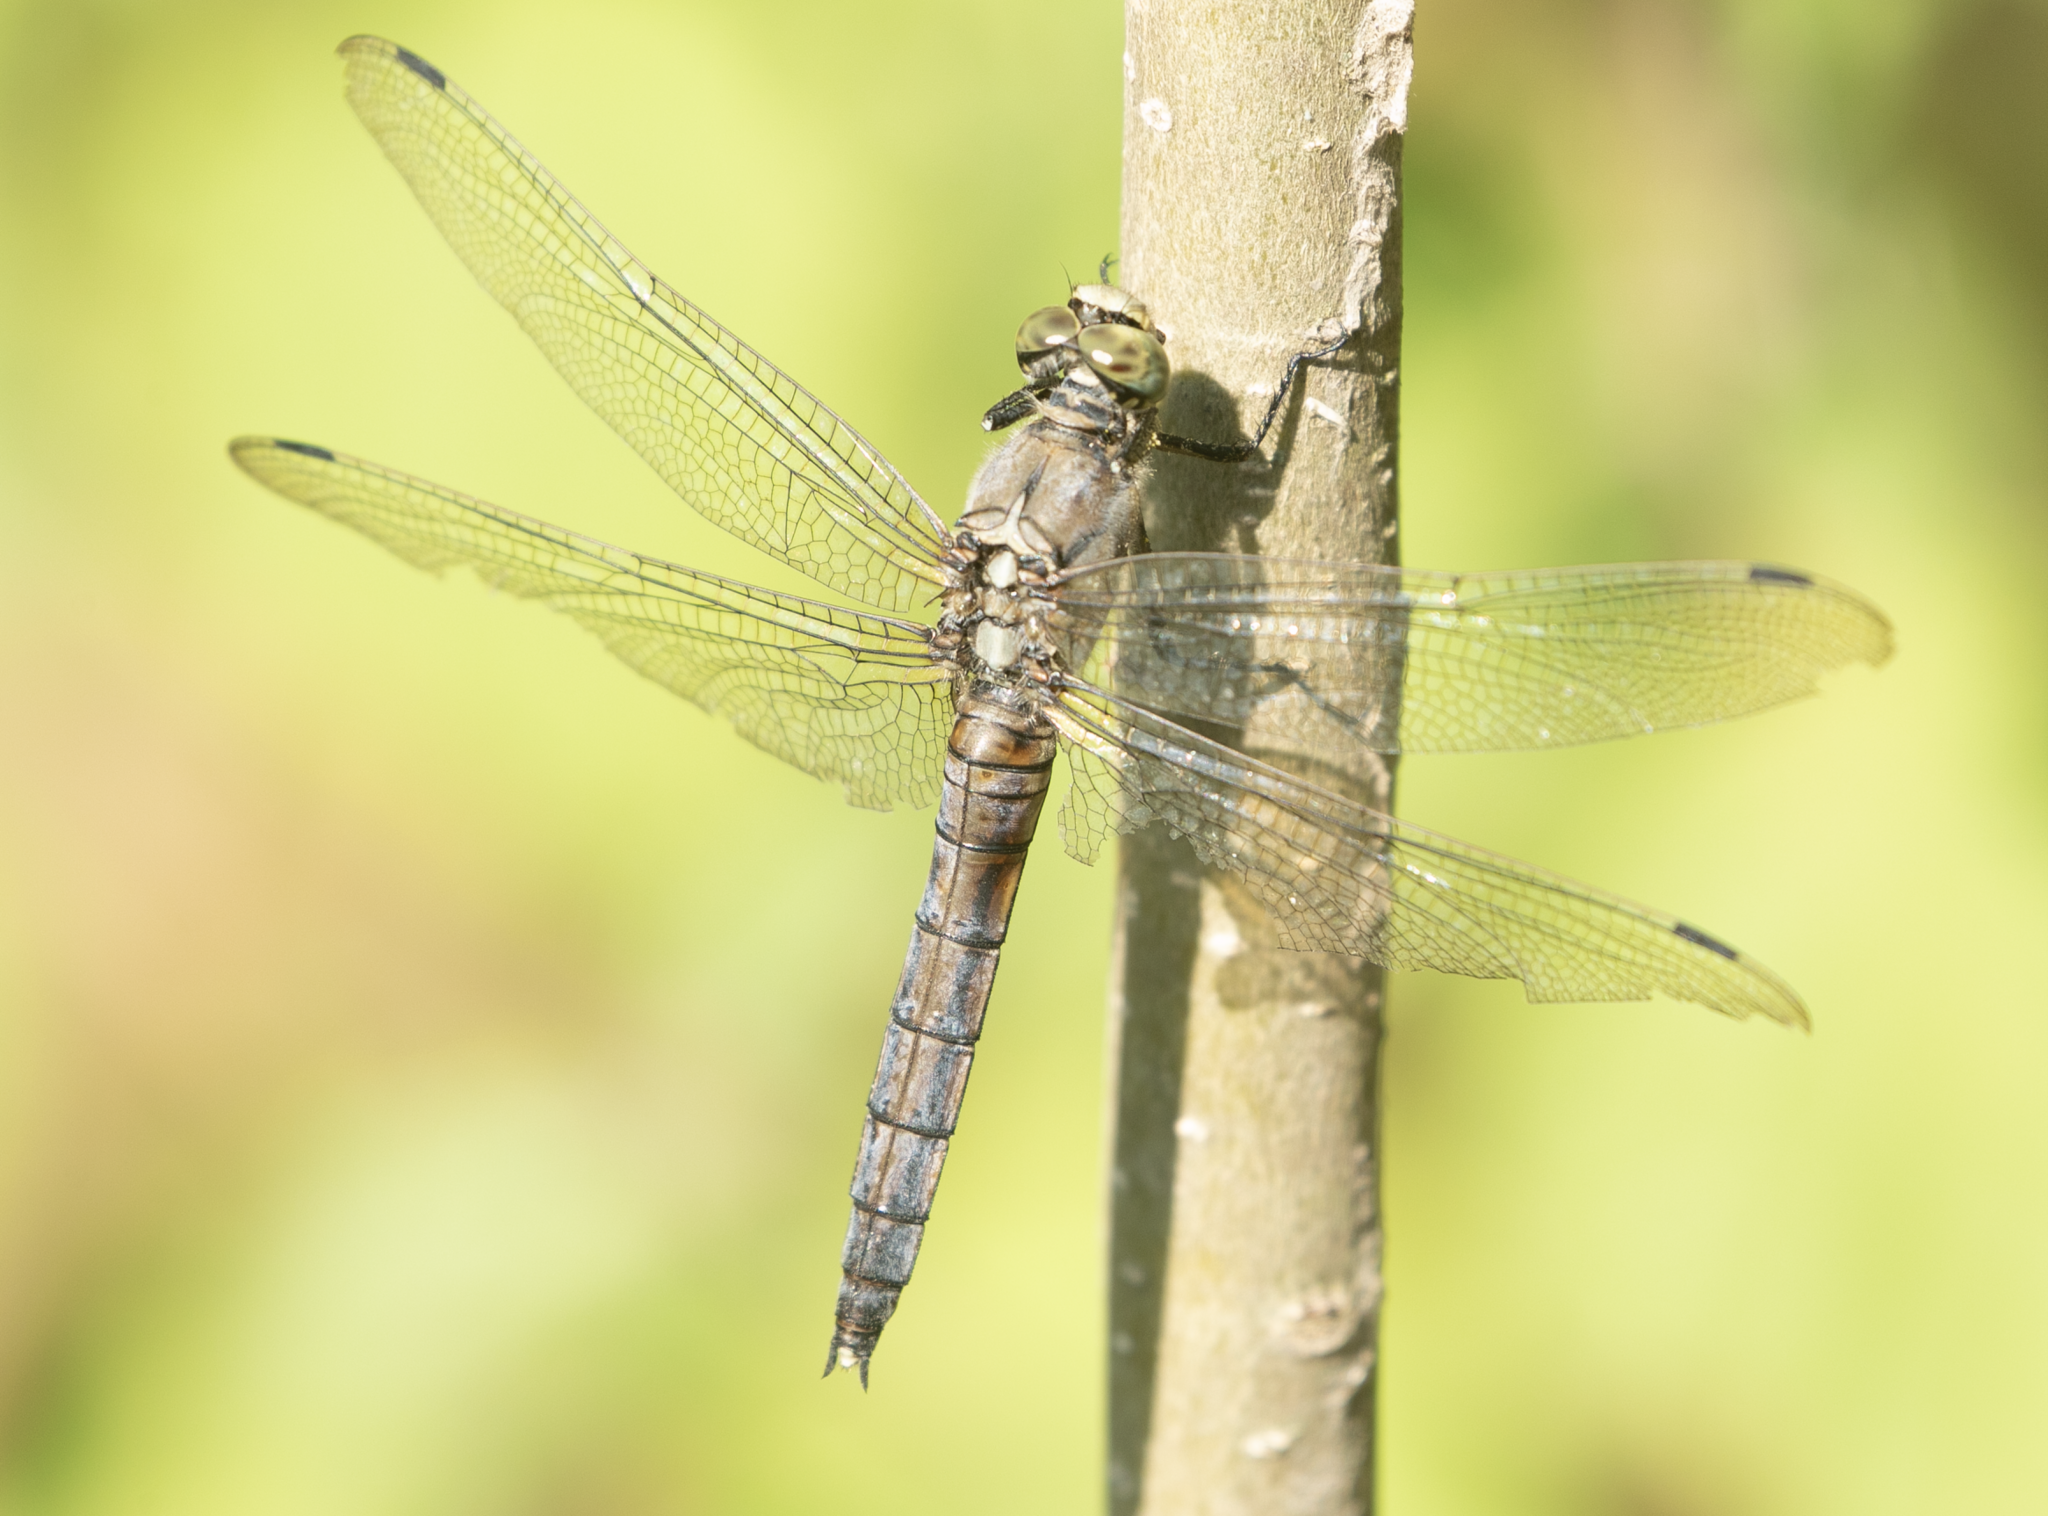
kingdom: Animalia
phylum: Arthropoda
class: Insecta
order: Odonata
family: Libellulidae
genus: Orthetrum
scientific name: Orthetrum cancellatum
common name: Black-tailed skimmer
